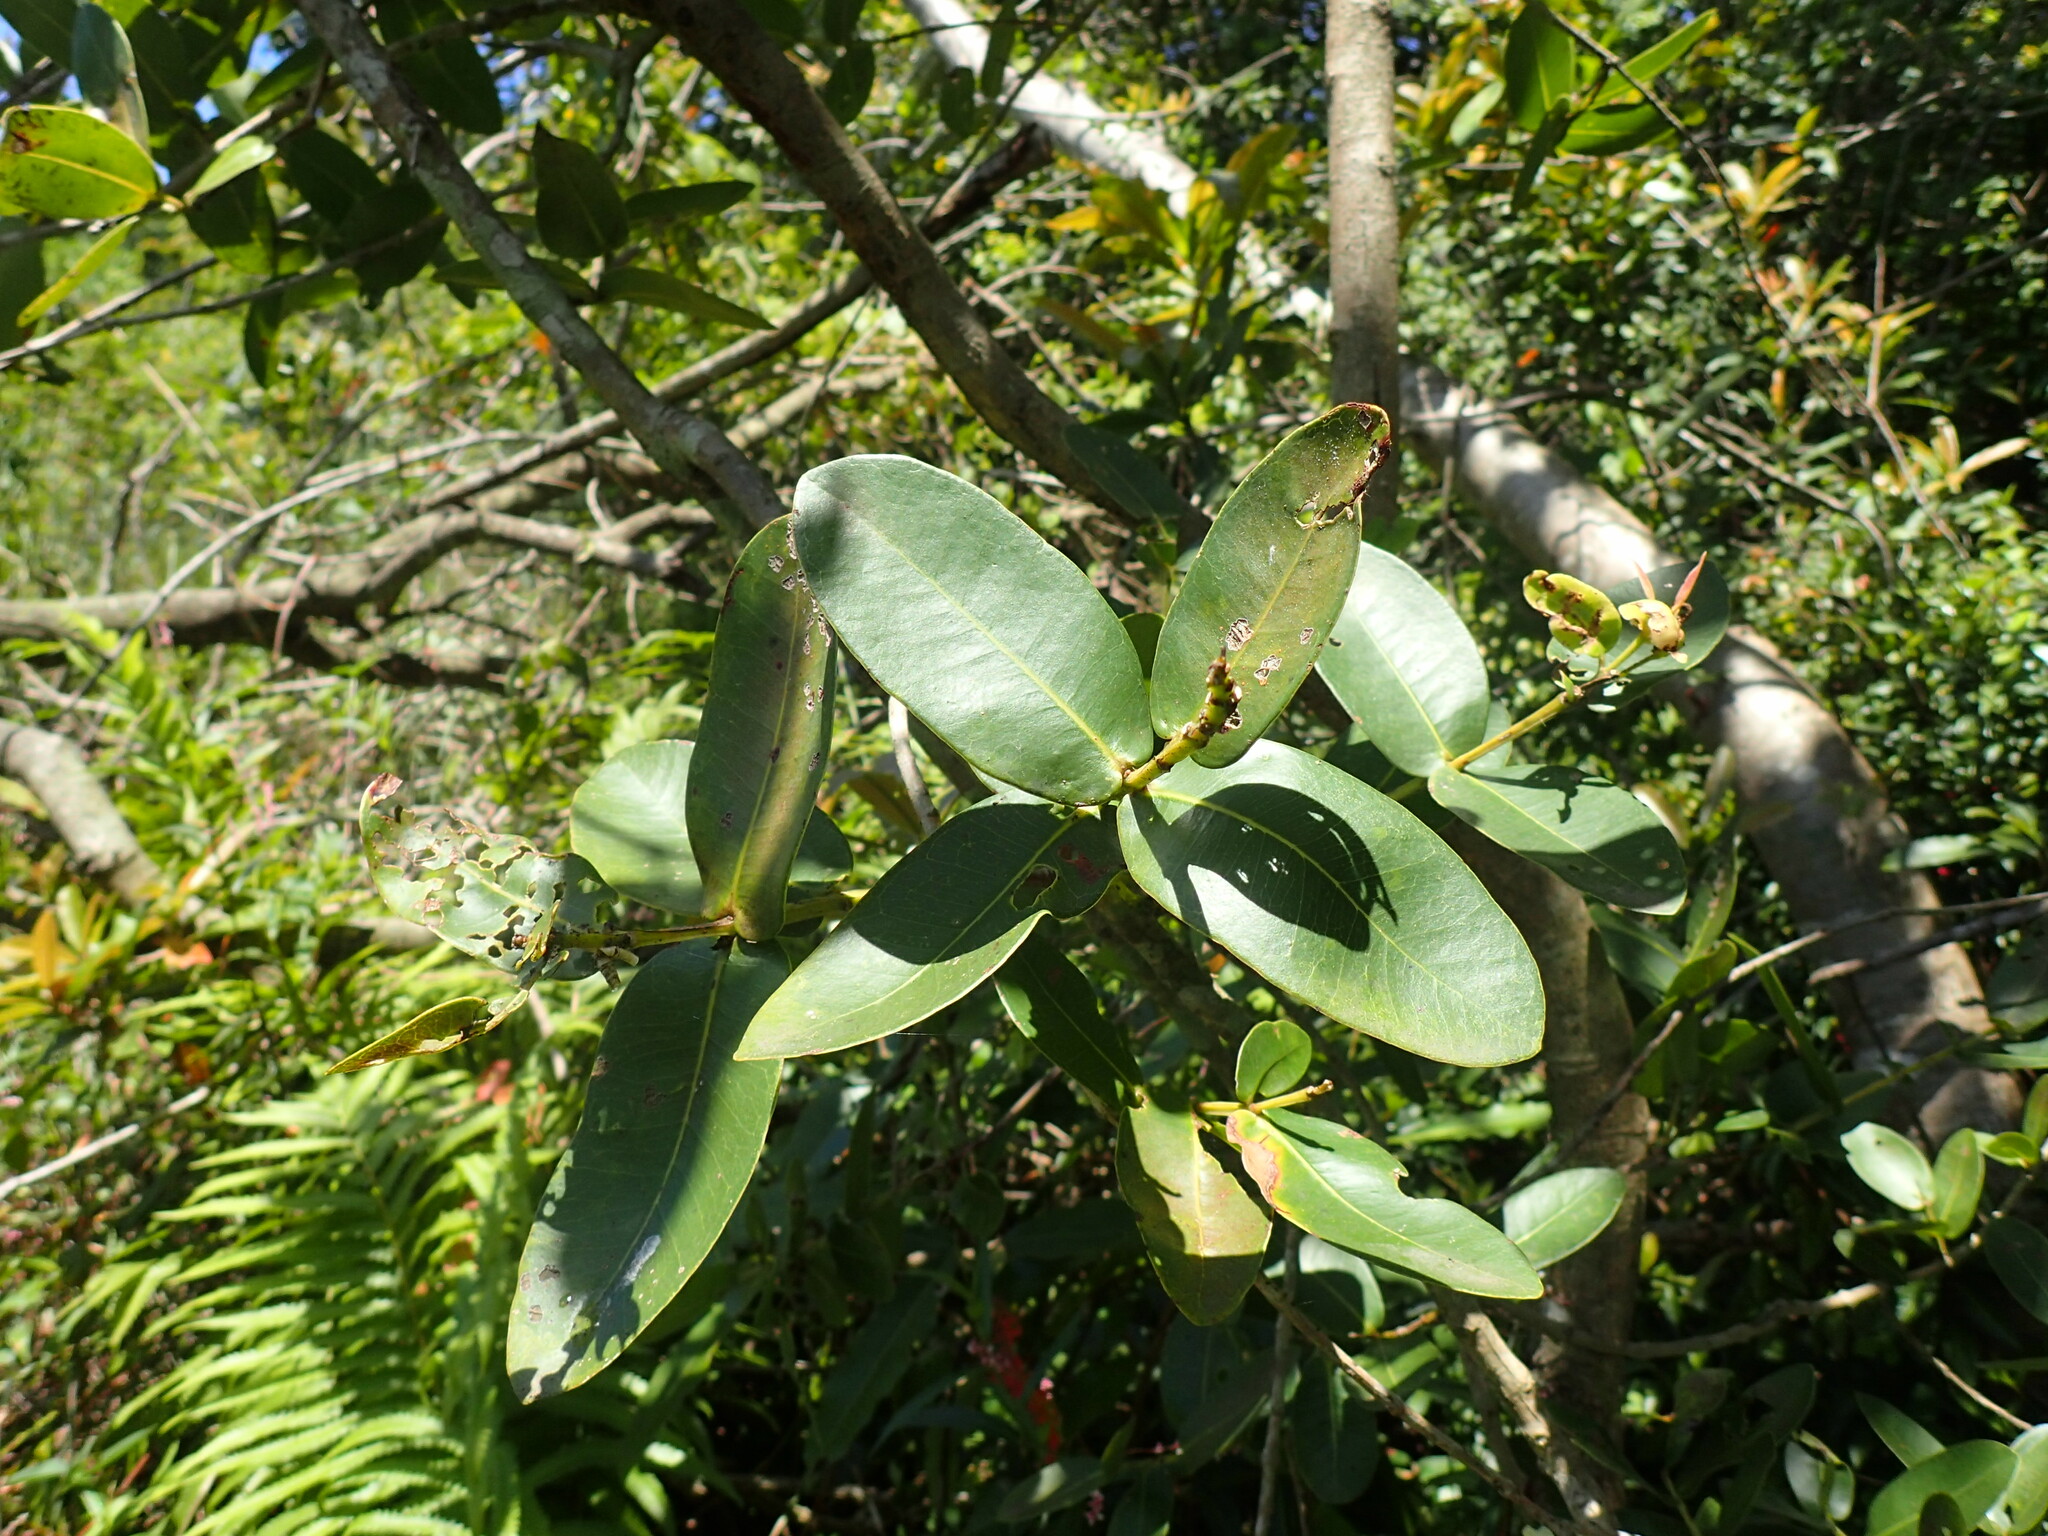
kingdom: Plantae
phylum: Tracheophyta
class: Magnoliopsida
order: Myrtales
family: Myrtaceae
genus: Syzygium
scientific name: Syzygium cordatum
